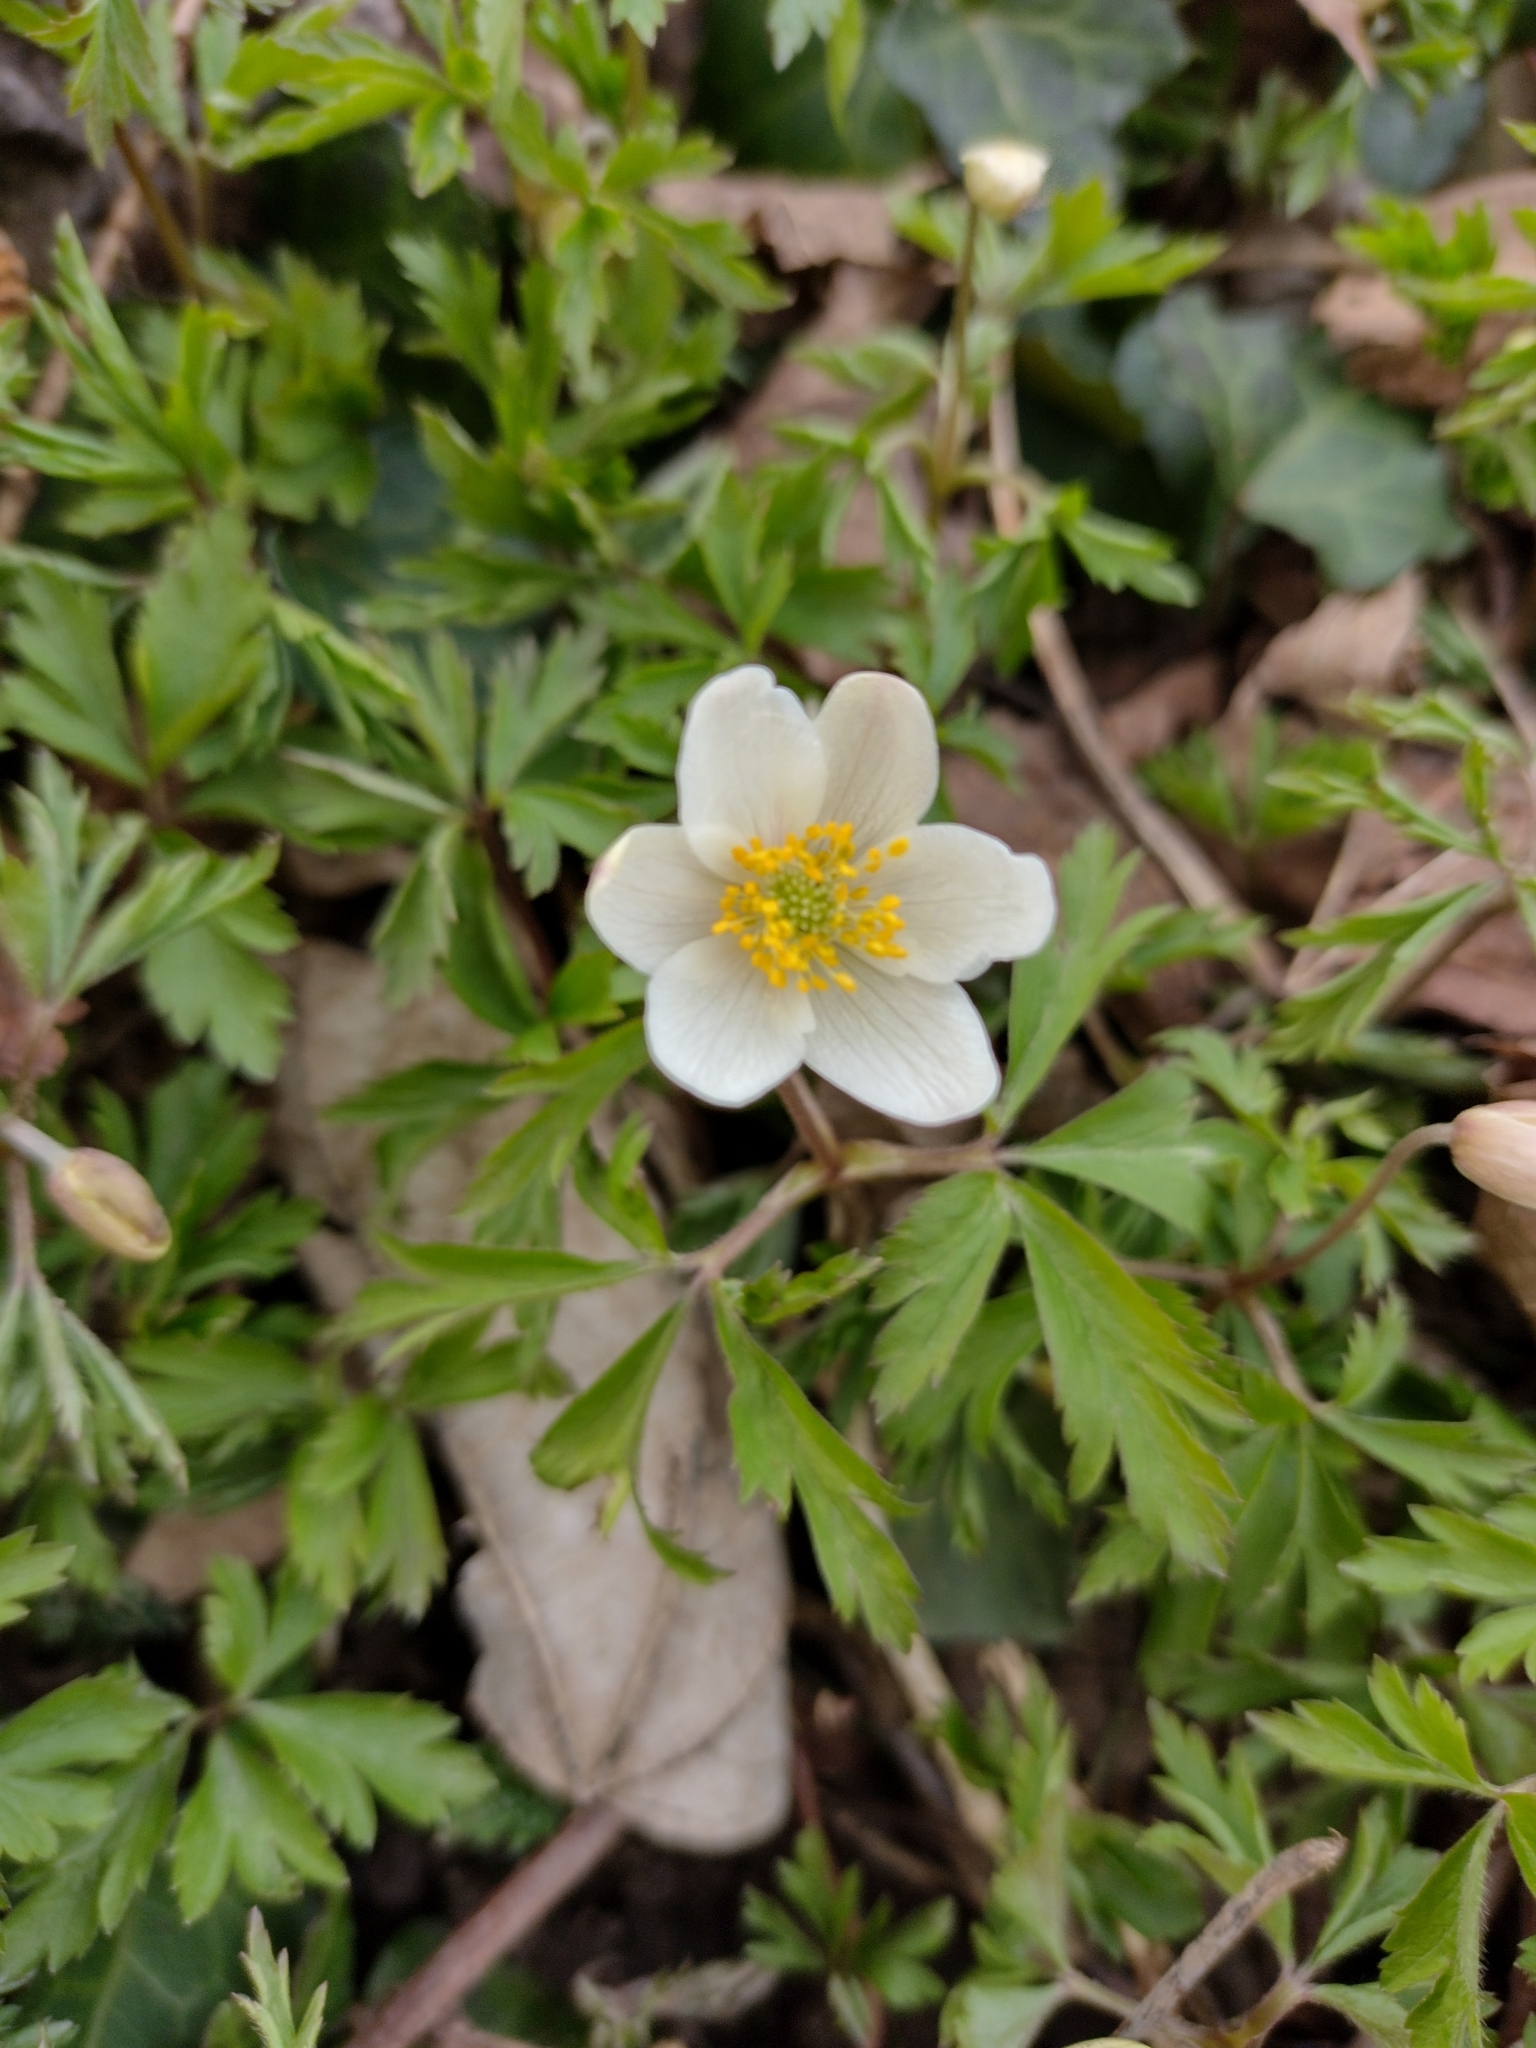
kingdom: Plantae
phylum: Tracheophyta
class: Magnoliopsida
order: Ranunculales
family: Ranunculaceae
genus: Anemone
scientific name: Anemone nemorosa
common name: Wood anemone
